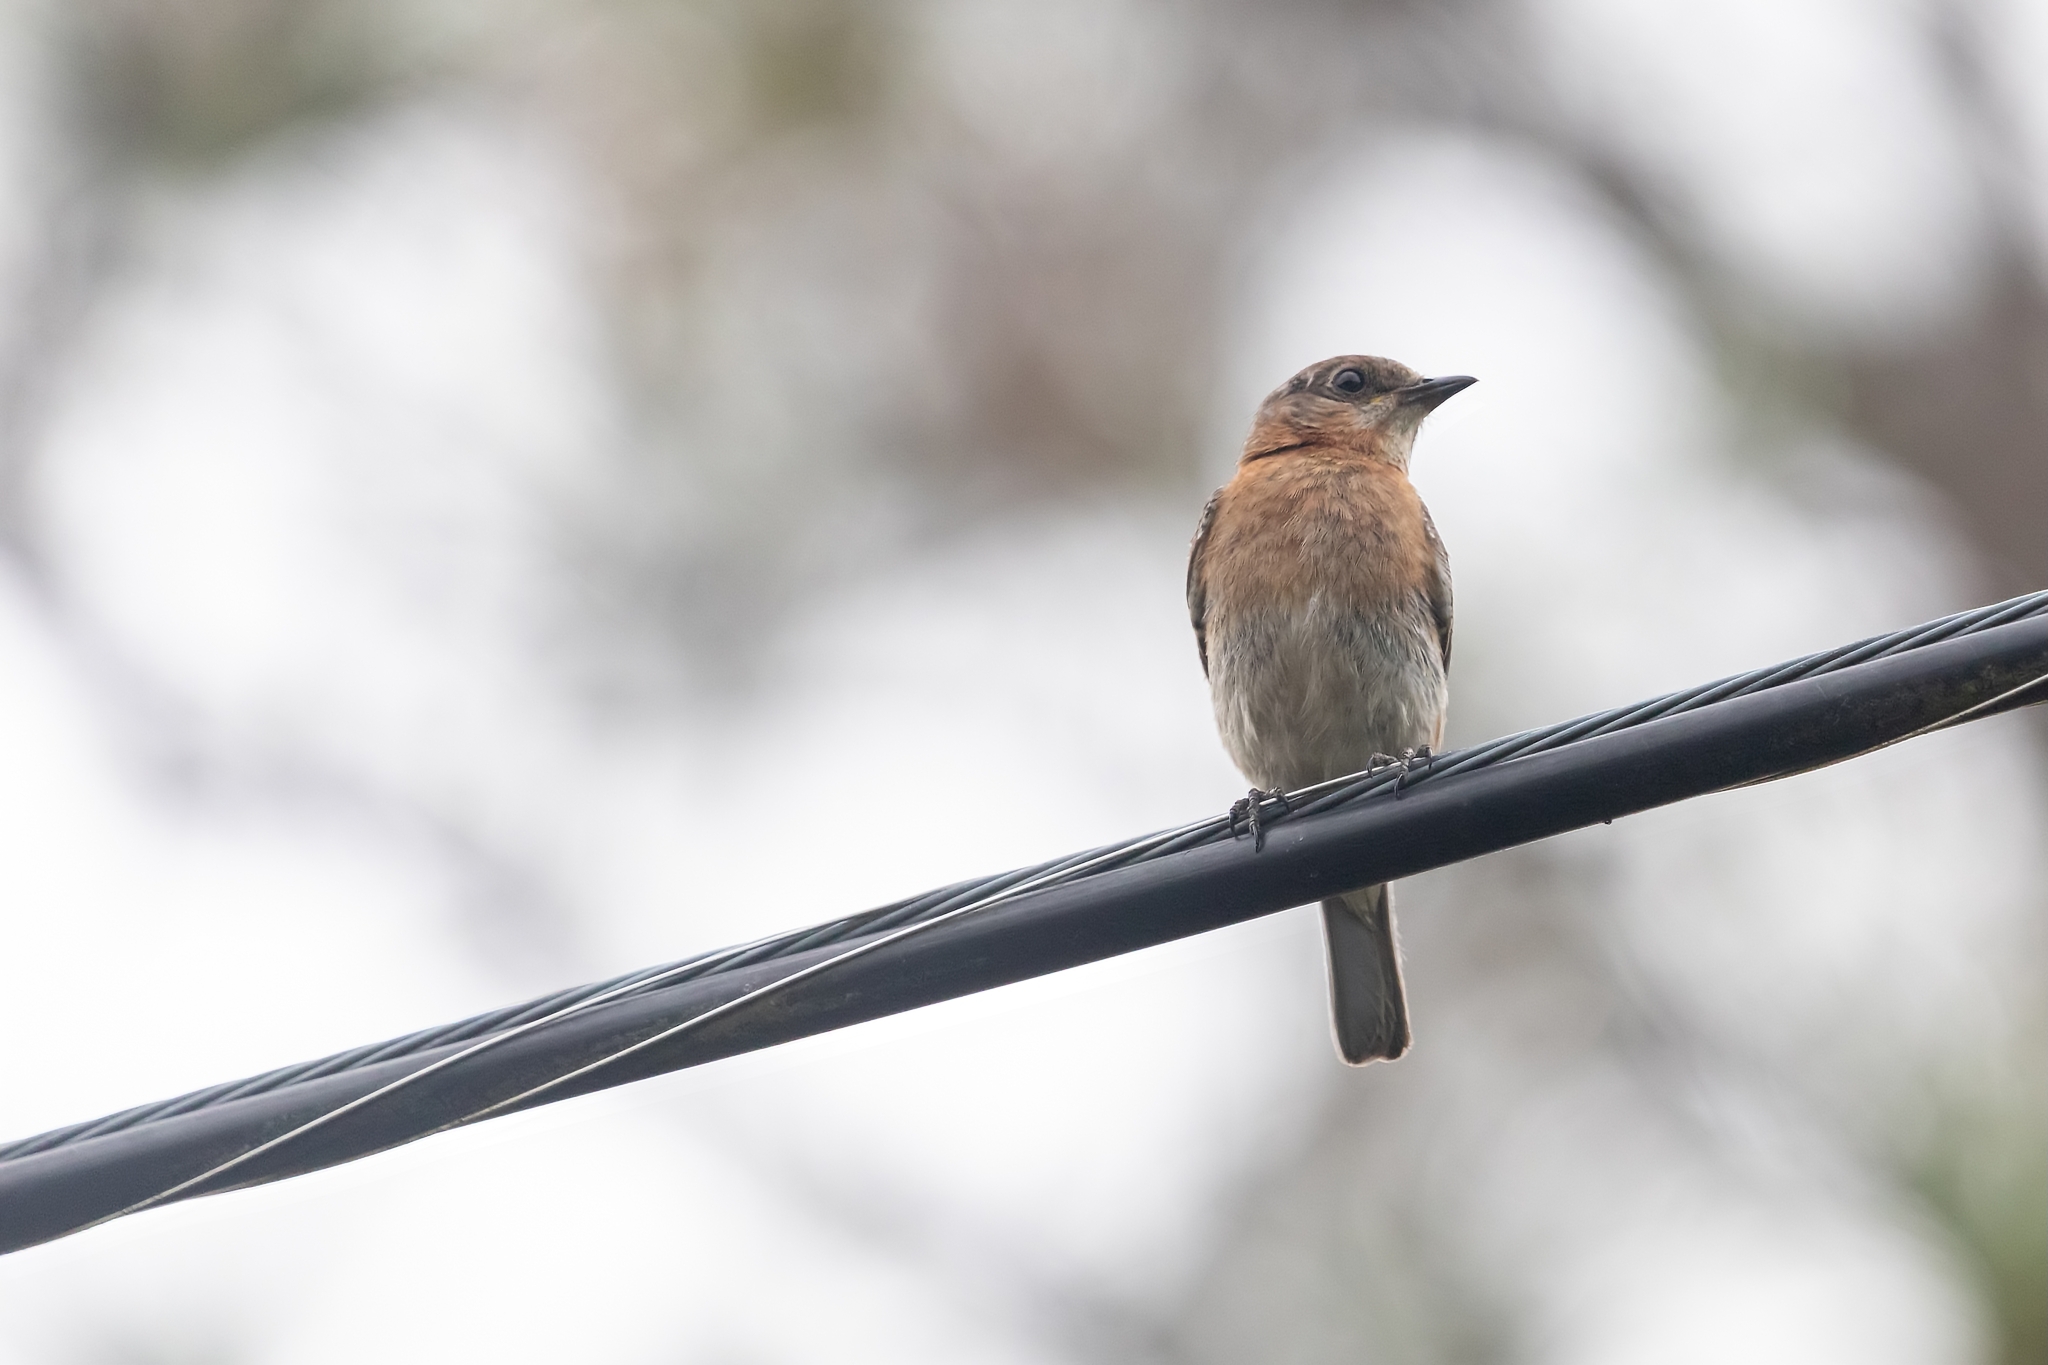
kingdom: Animalia
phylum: Chordata
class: Aves
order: Passeriformes
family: Turdidae
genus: Sialia
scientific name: Sialia sialis
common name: Eastern bluebird
